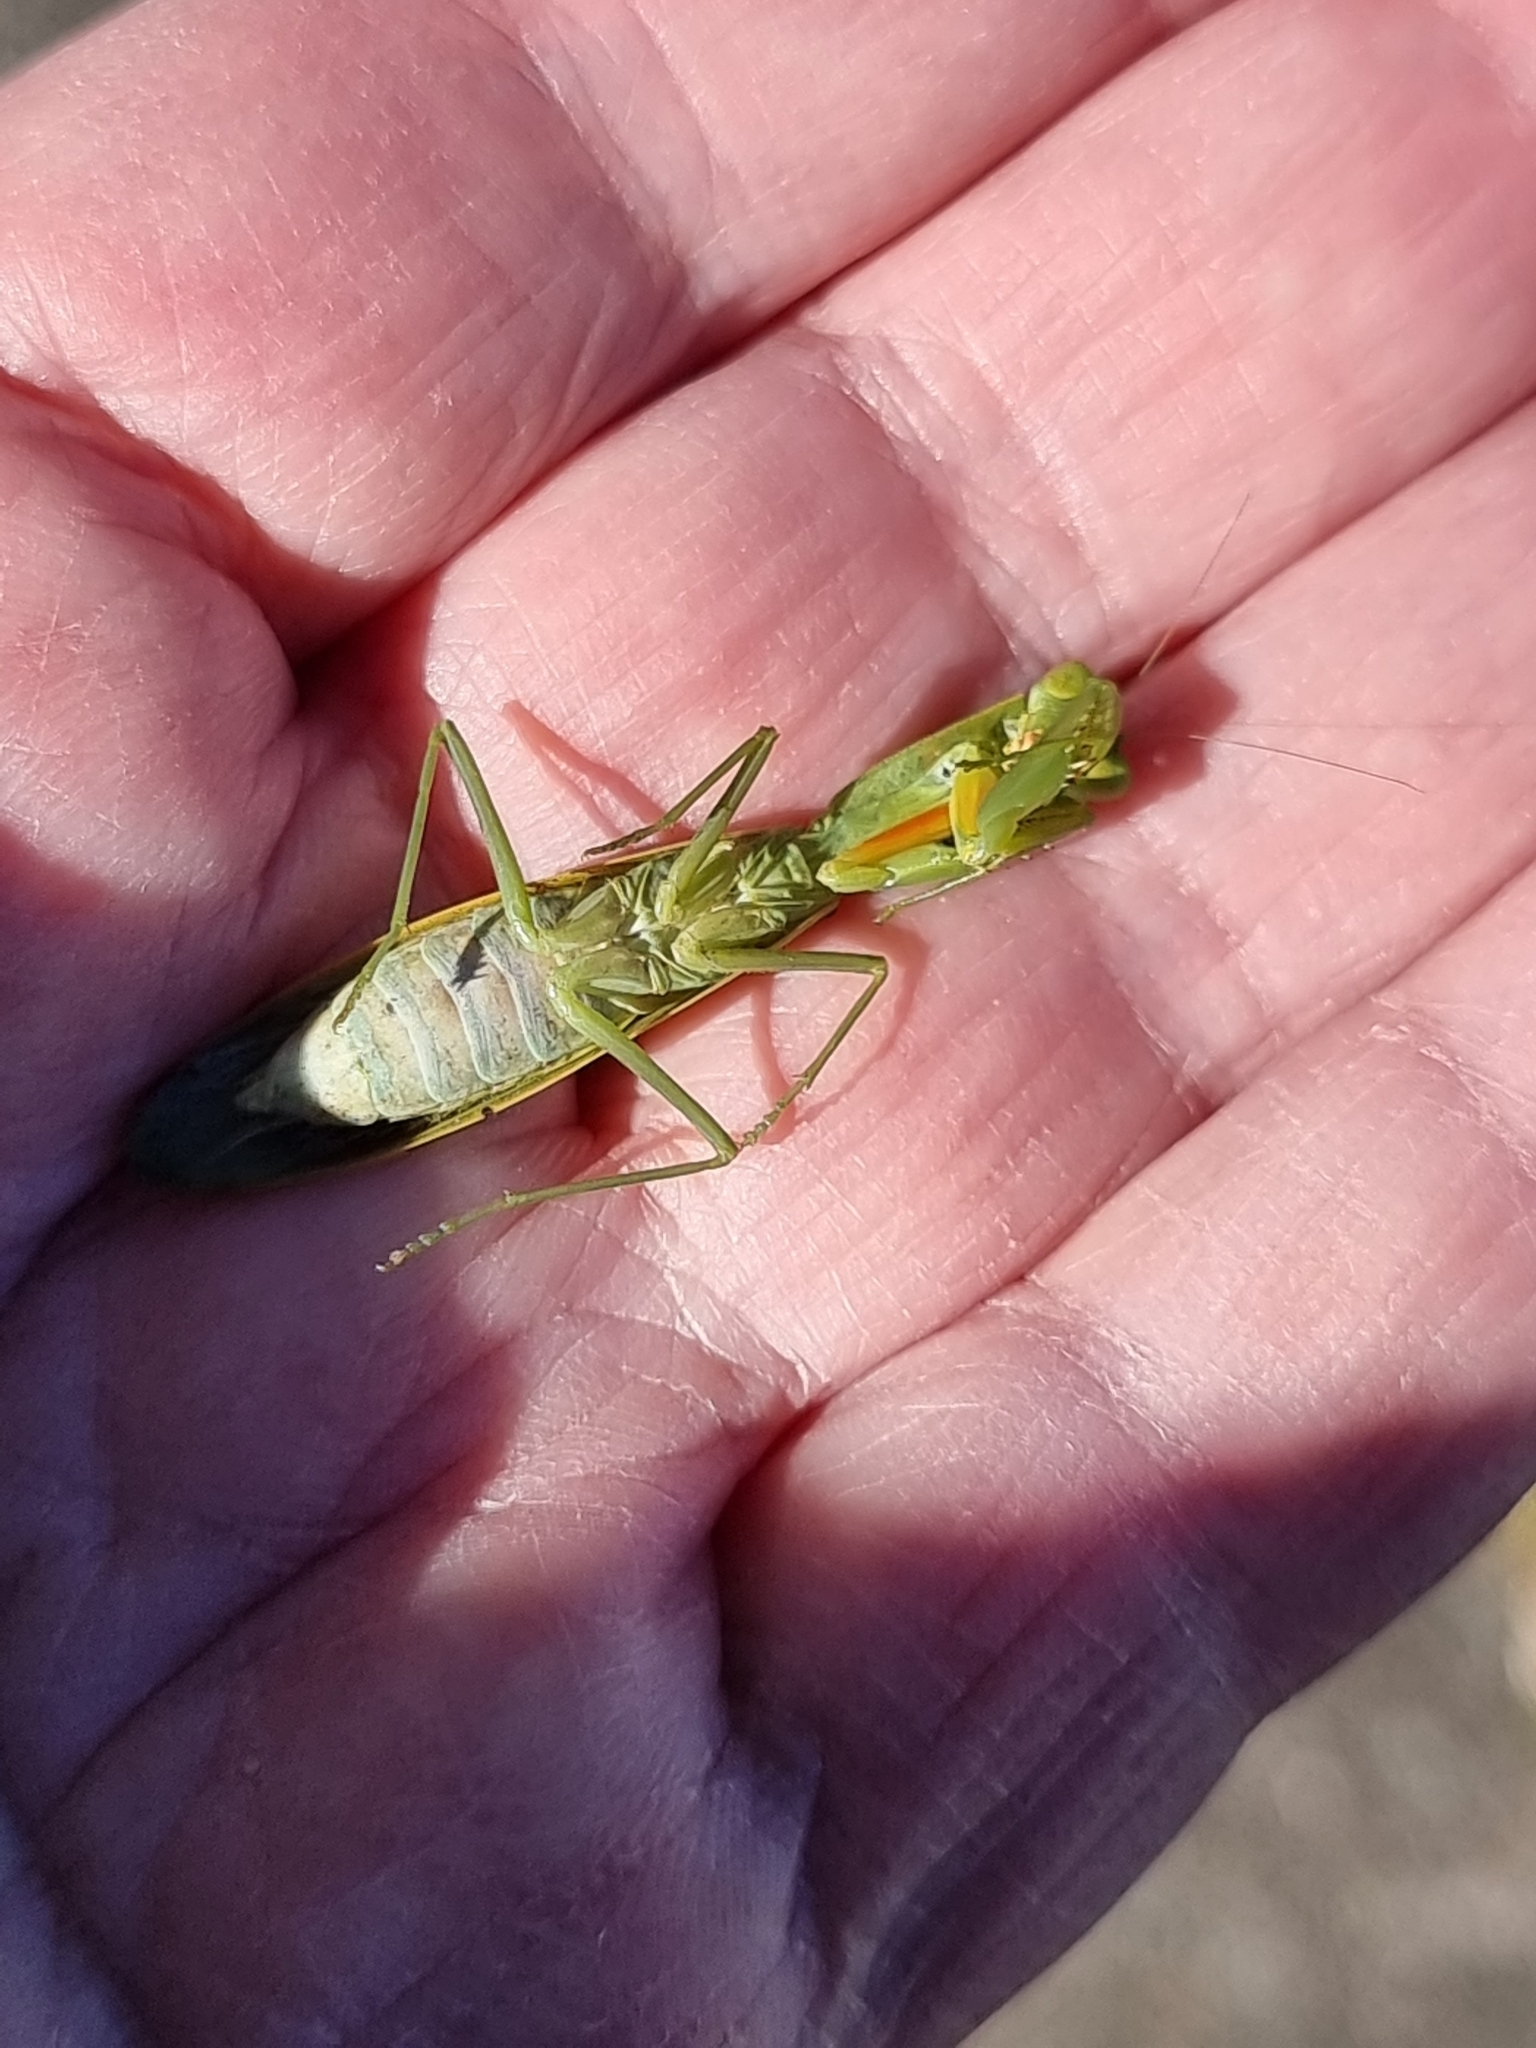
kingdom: Animalia
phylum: Arthropoda
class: Insecta
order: Mantodea
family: Mantidae
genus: Orthodera
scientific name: Orthodera ministralis
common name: Mantis
